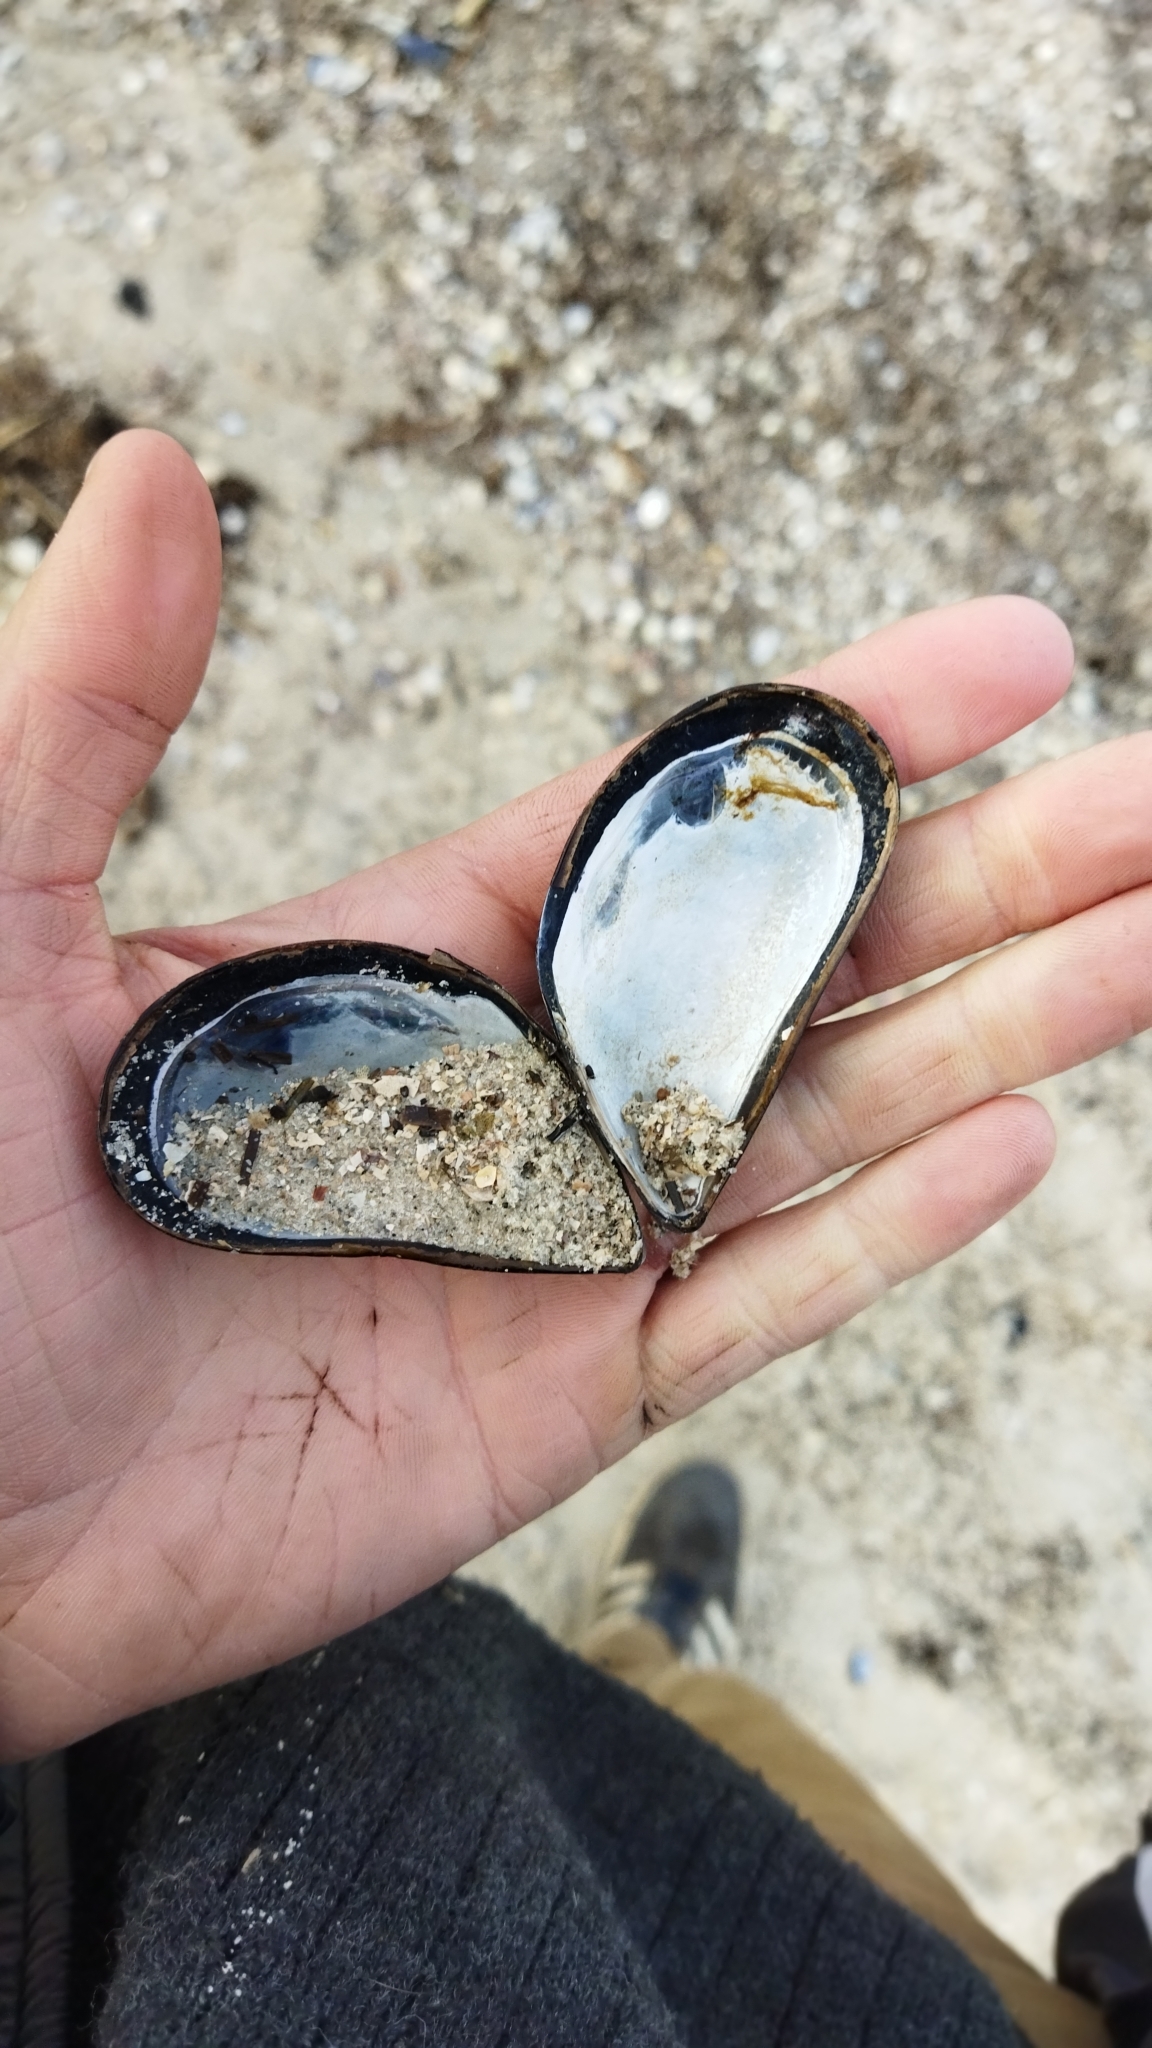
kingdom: Animalia
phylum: Mollusca
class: Bivalvia
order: Mytilida
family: Mytilidae
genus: Mytilus
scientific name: Mytilus galloprovincialis
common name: Mediterranean mussel
